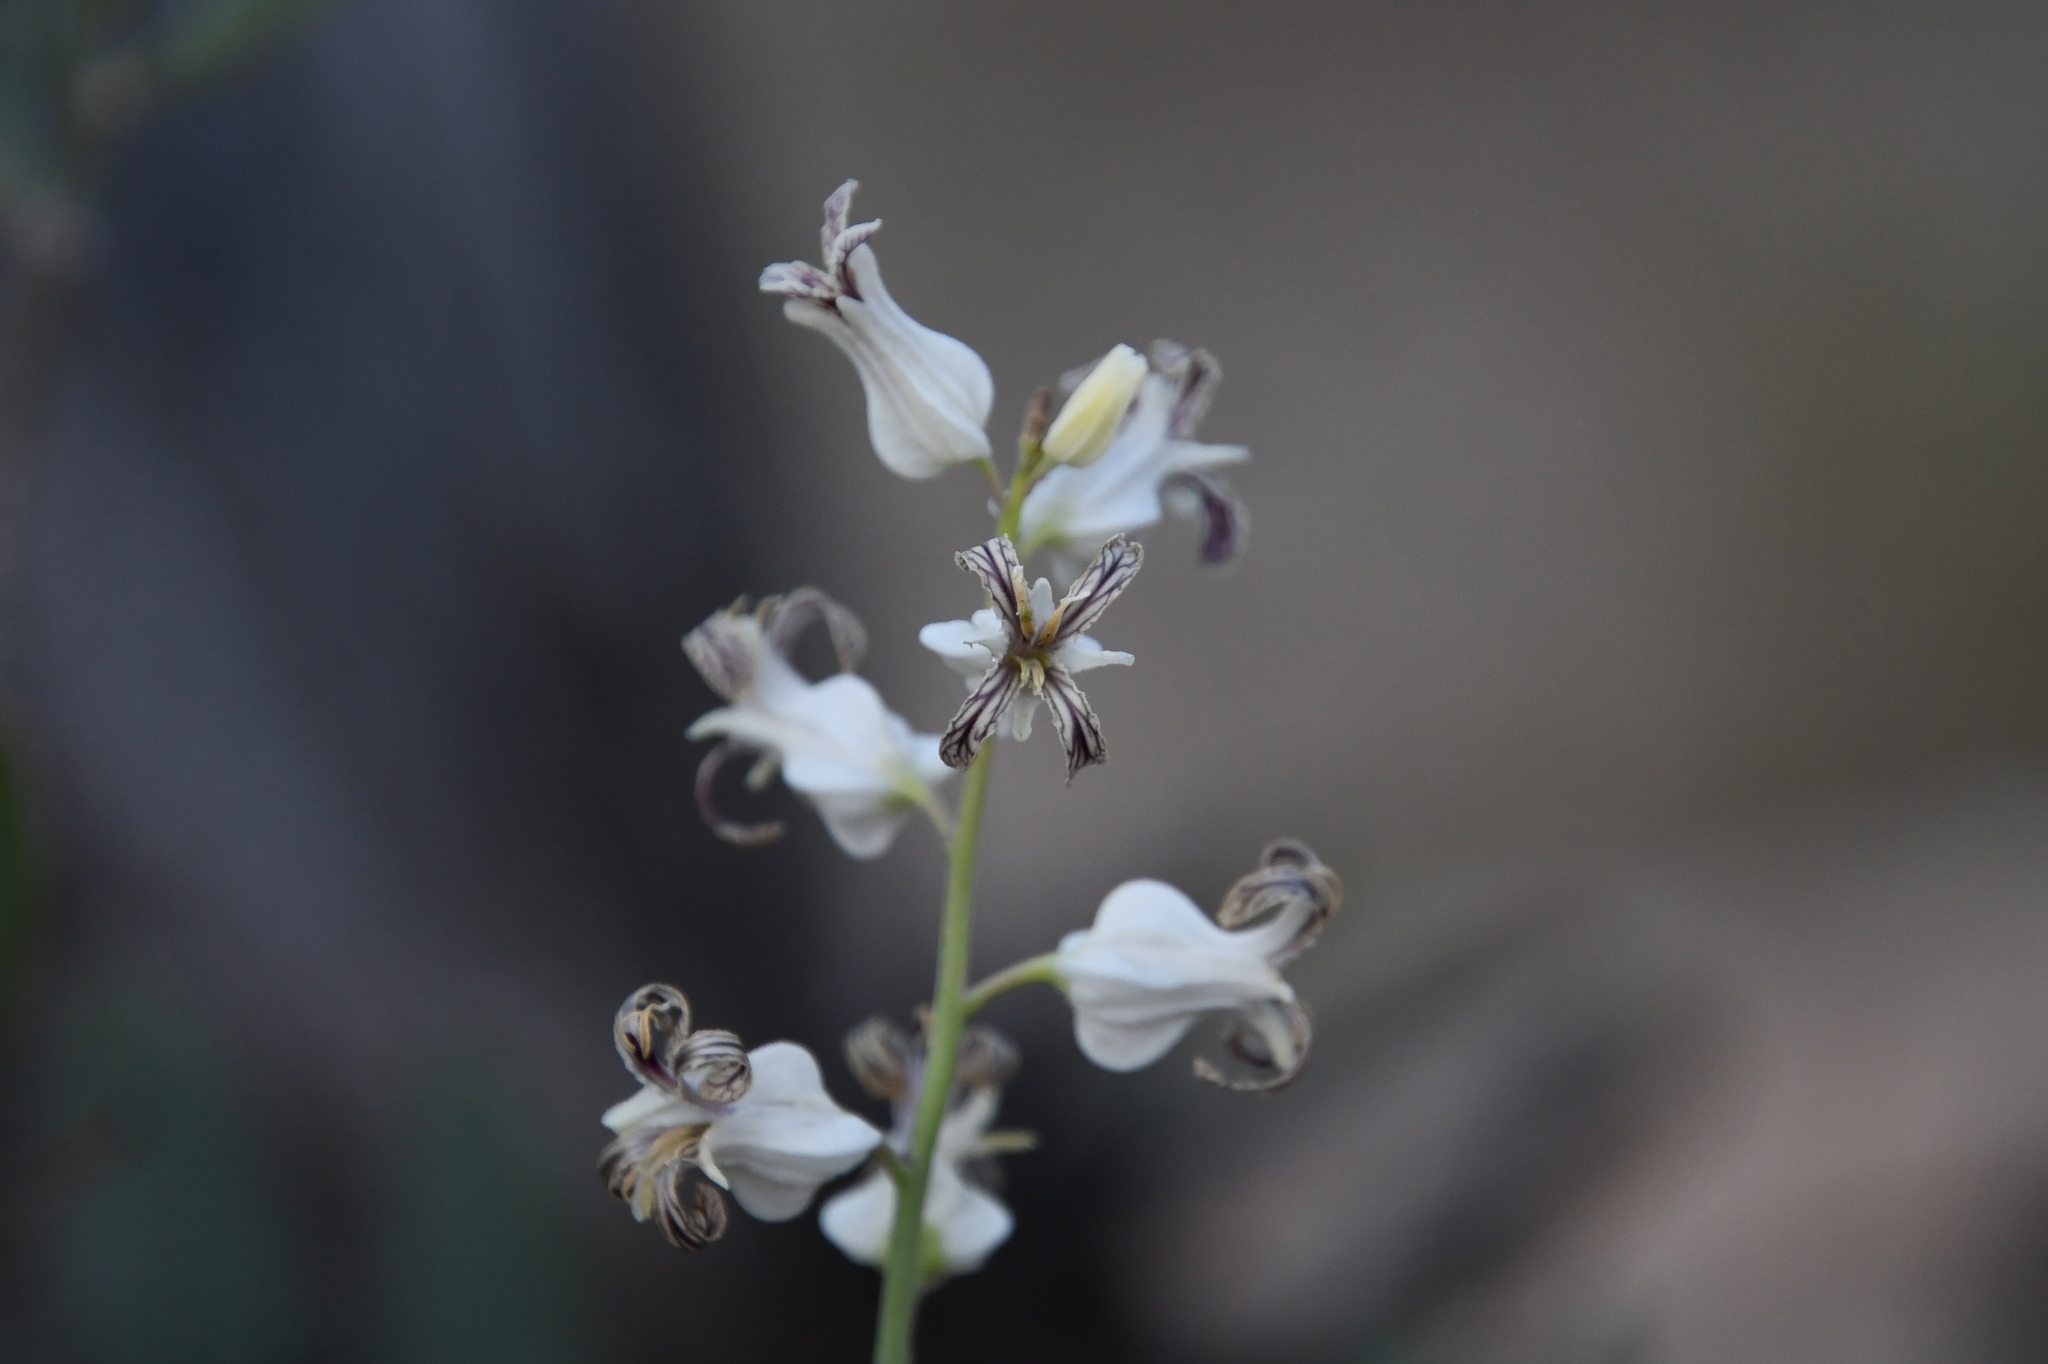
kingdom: Plantae
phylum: Tracheophyta
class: Magnoliopsida
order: Brassicales
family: Brassicaceae
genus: Streptanthus
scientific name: Streptanthus carinatus
